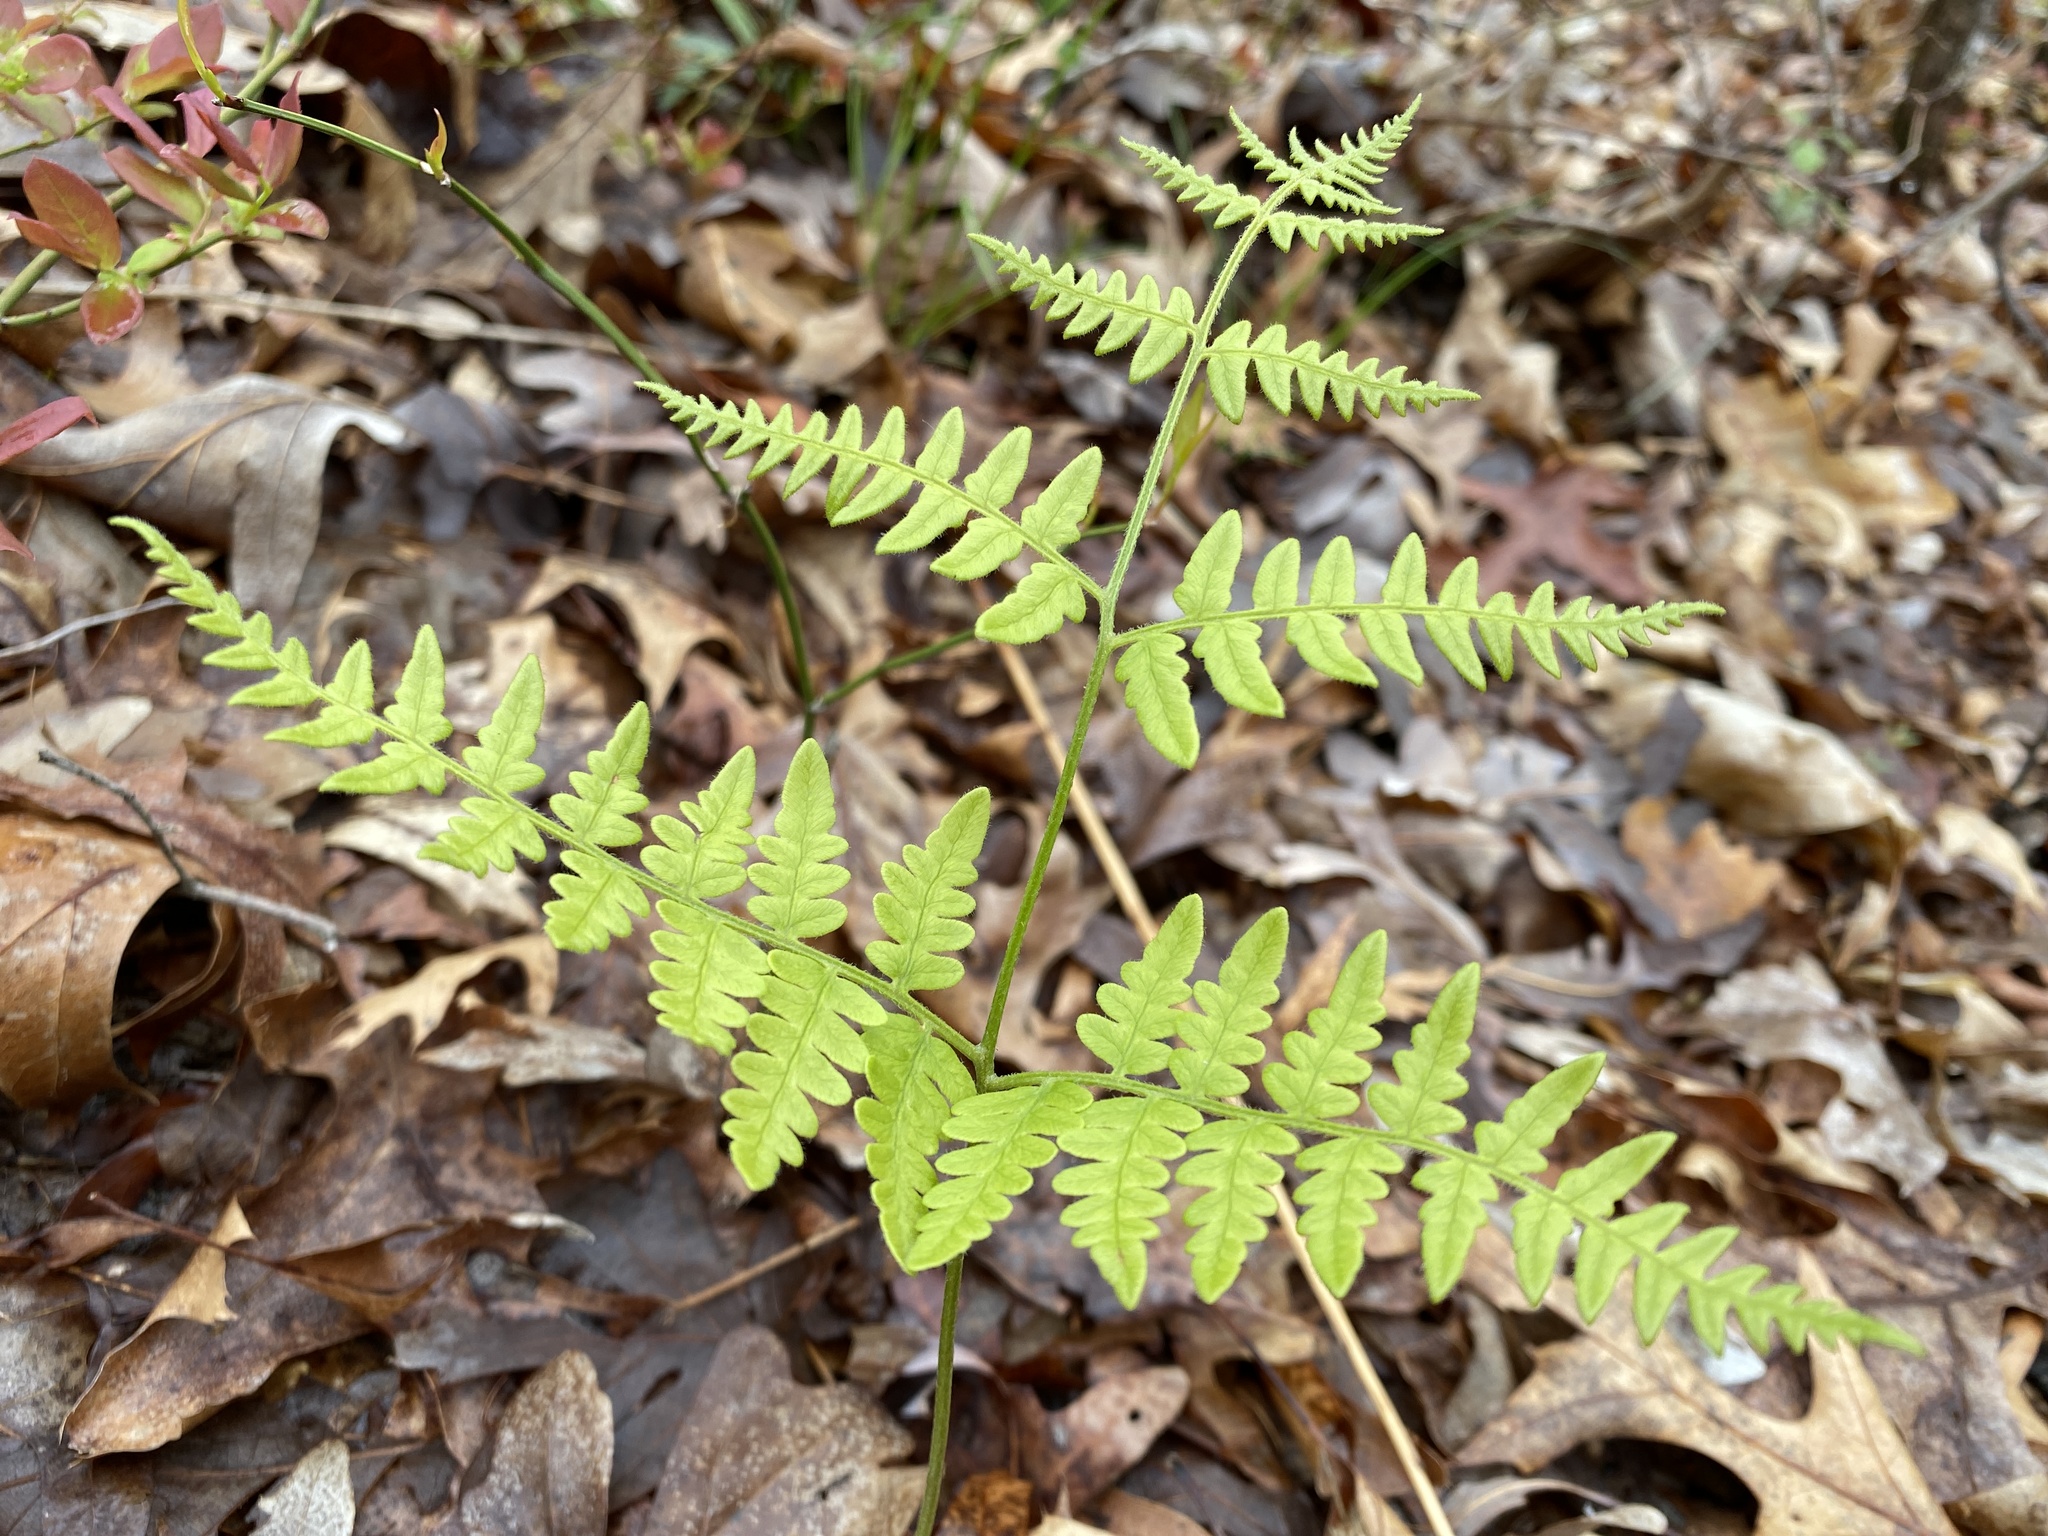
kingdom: Plantae
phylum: Tracheophyta
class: Polypodiopsida
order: Polypodiales
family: Dennstaedtiaceae
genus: Pteridium
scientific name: Pteridium aquilinum
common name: Bracken
